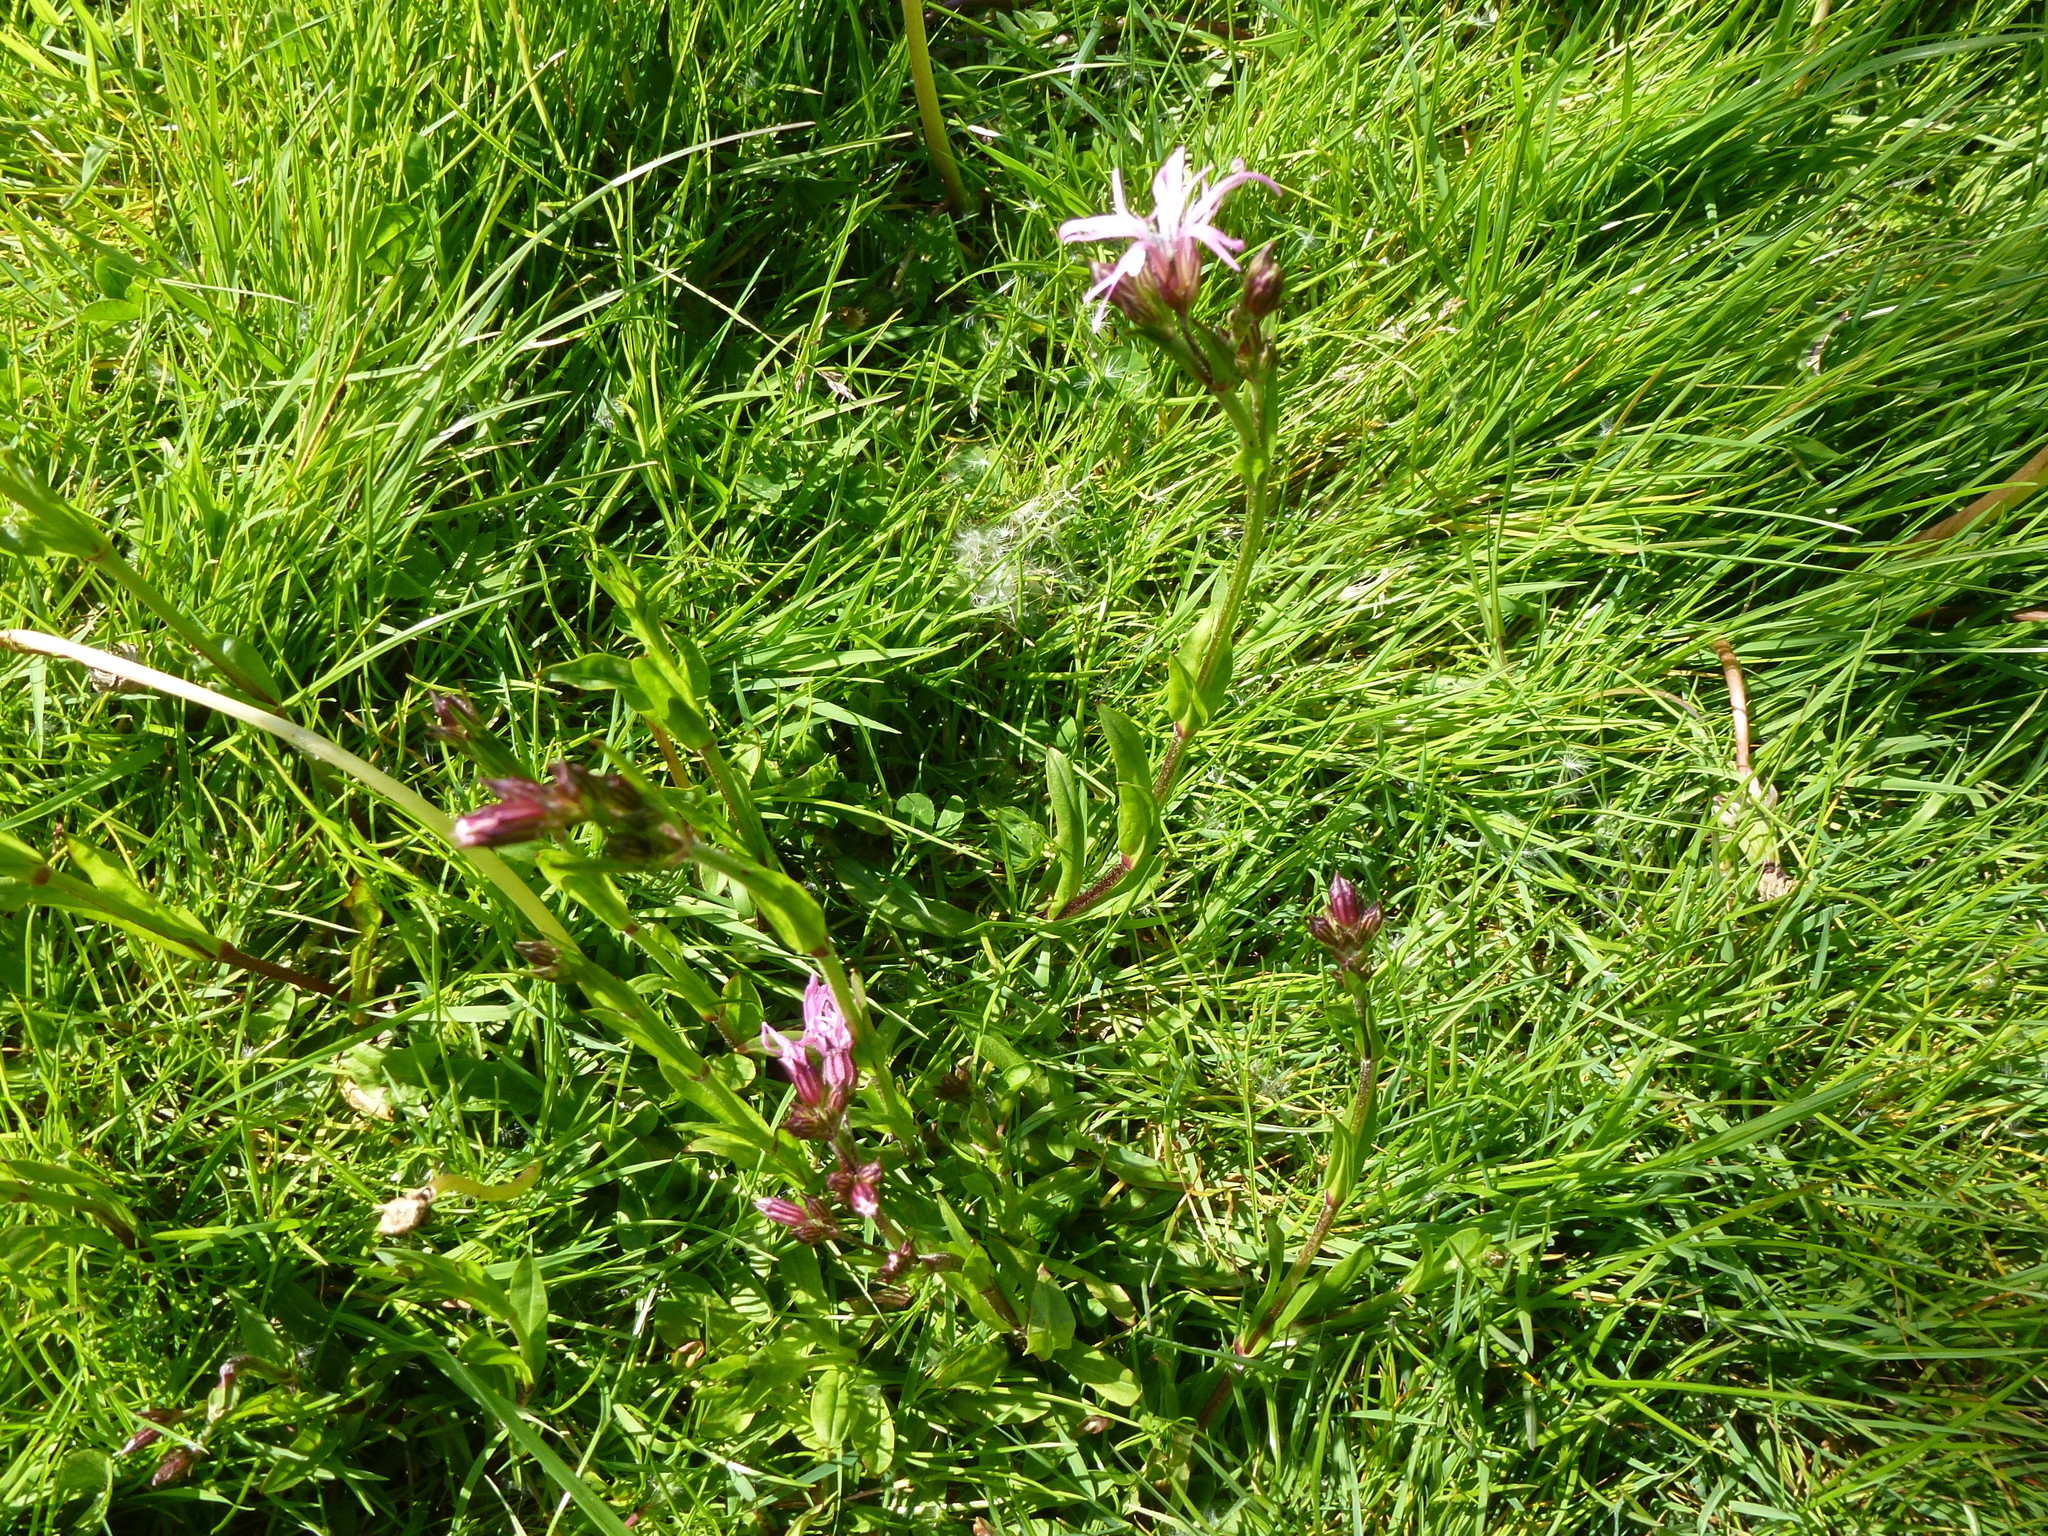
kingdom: Plantae
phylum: Tracheophyta
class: Magnoliopsida
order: Caryophyllales
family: Caryophyllaceae
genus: Silene
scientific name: Silene flos-cuculi
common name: Ragged-robin
